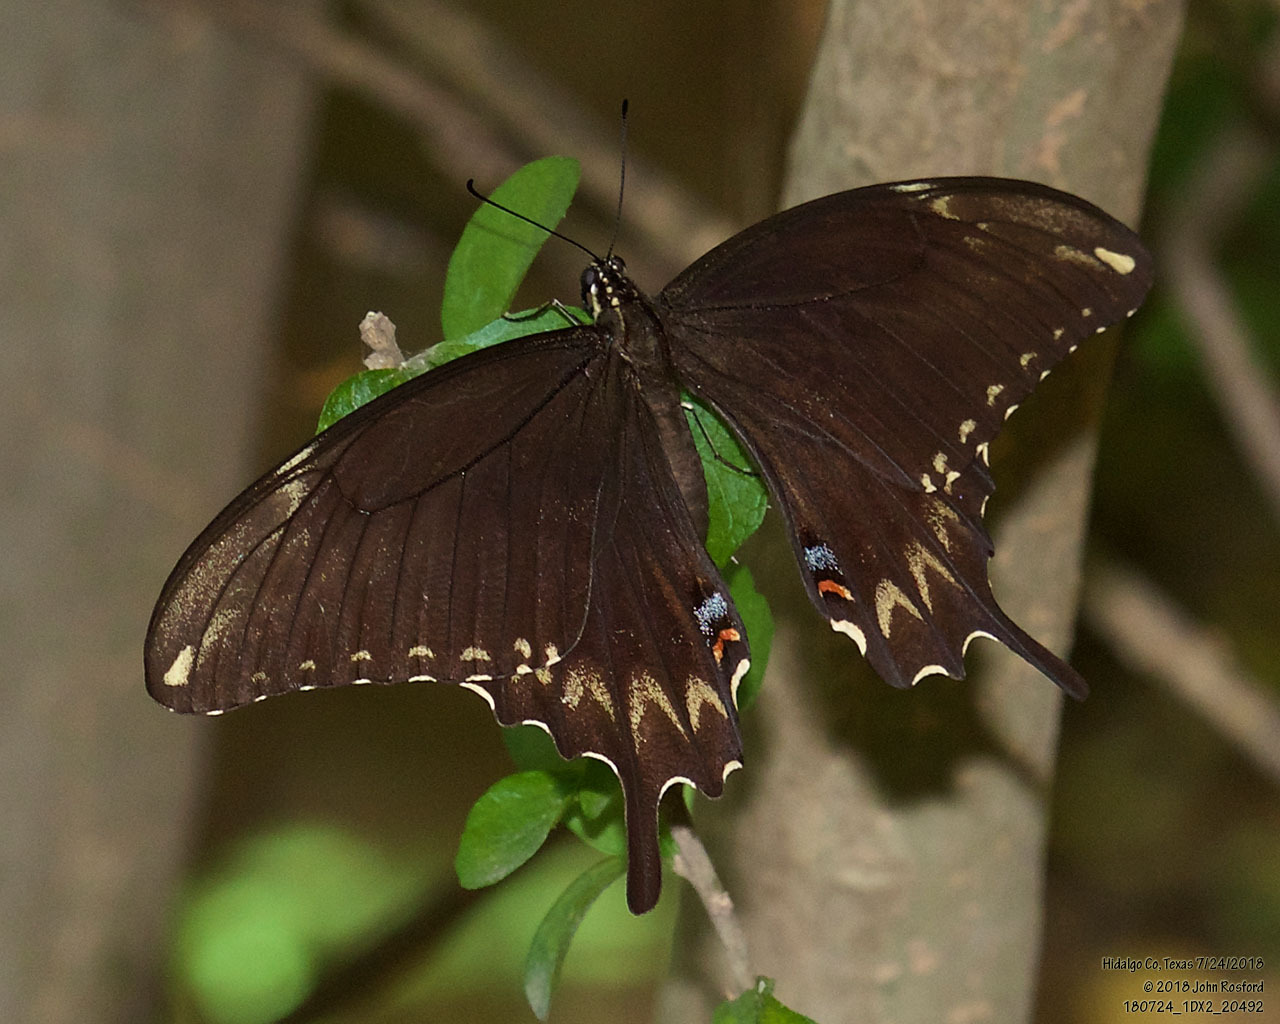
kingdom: Animalia
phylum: Arthropoda
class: Insecta
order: Lepidoptera
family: Papilionidae
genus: Papilio
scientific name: Papilio ornythion
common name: Ornythion swallowtail
